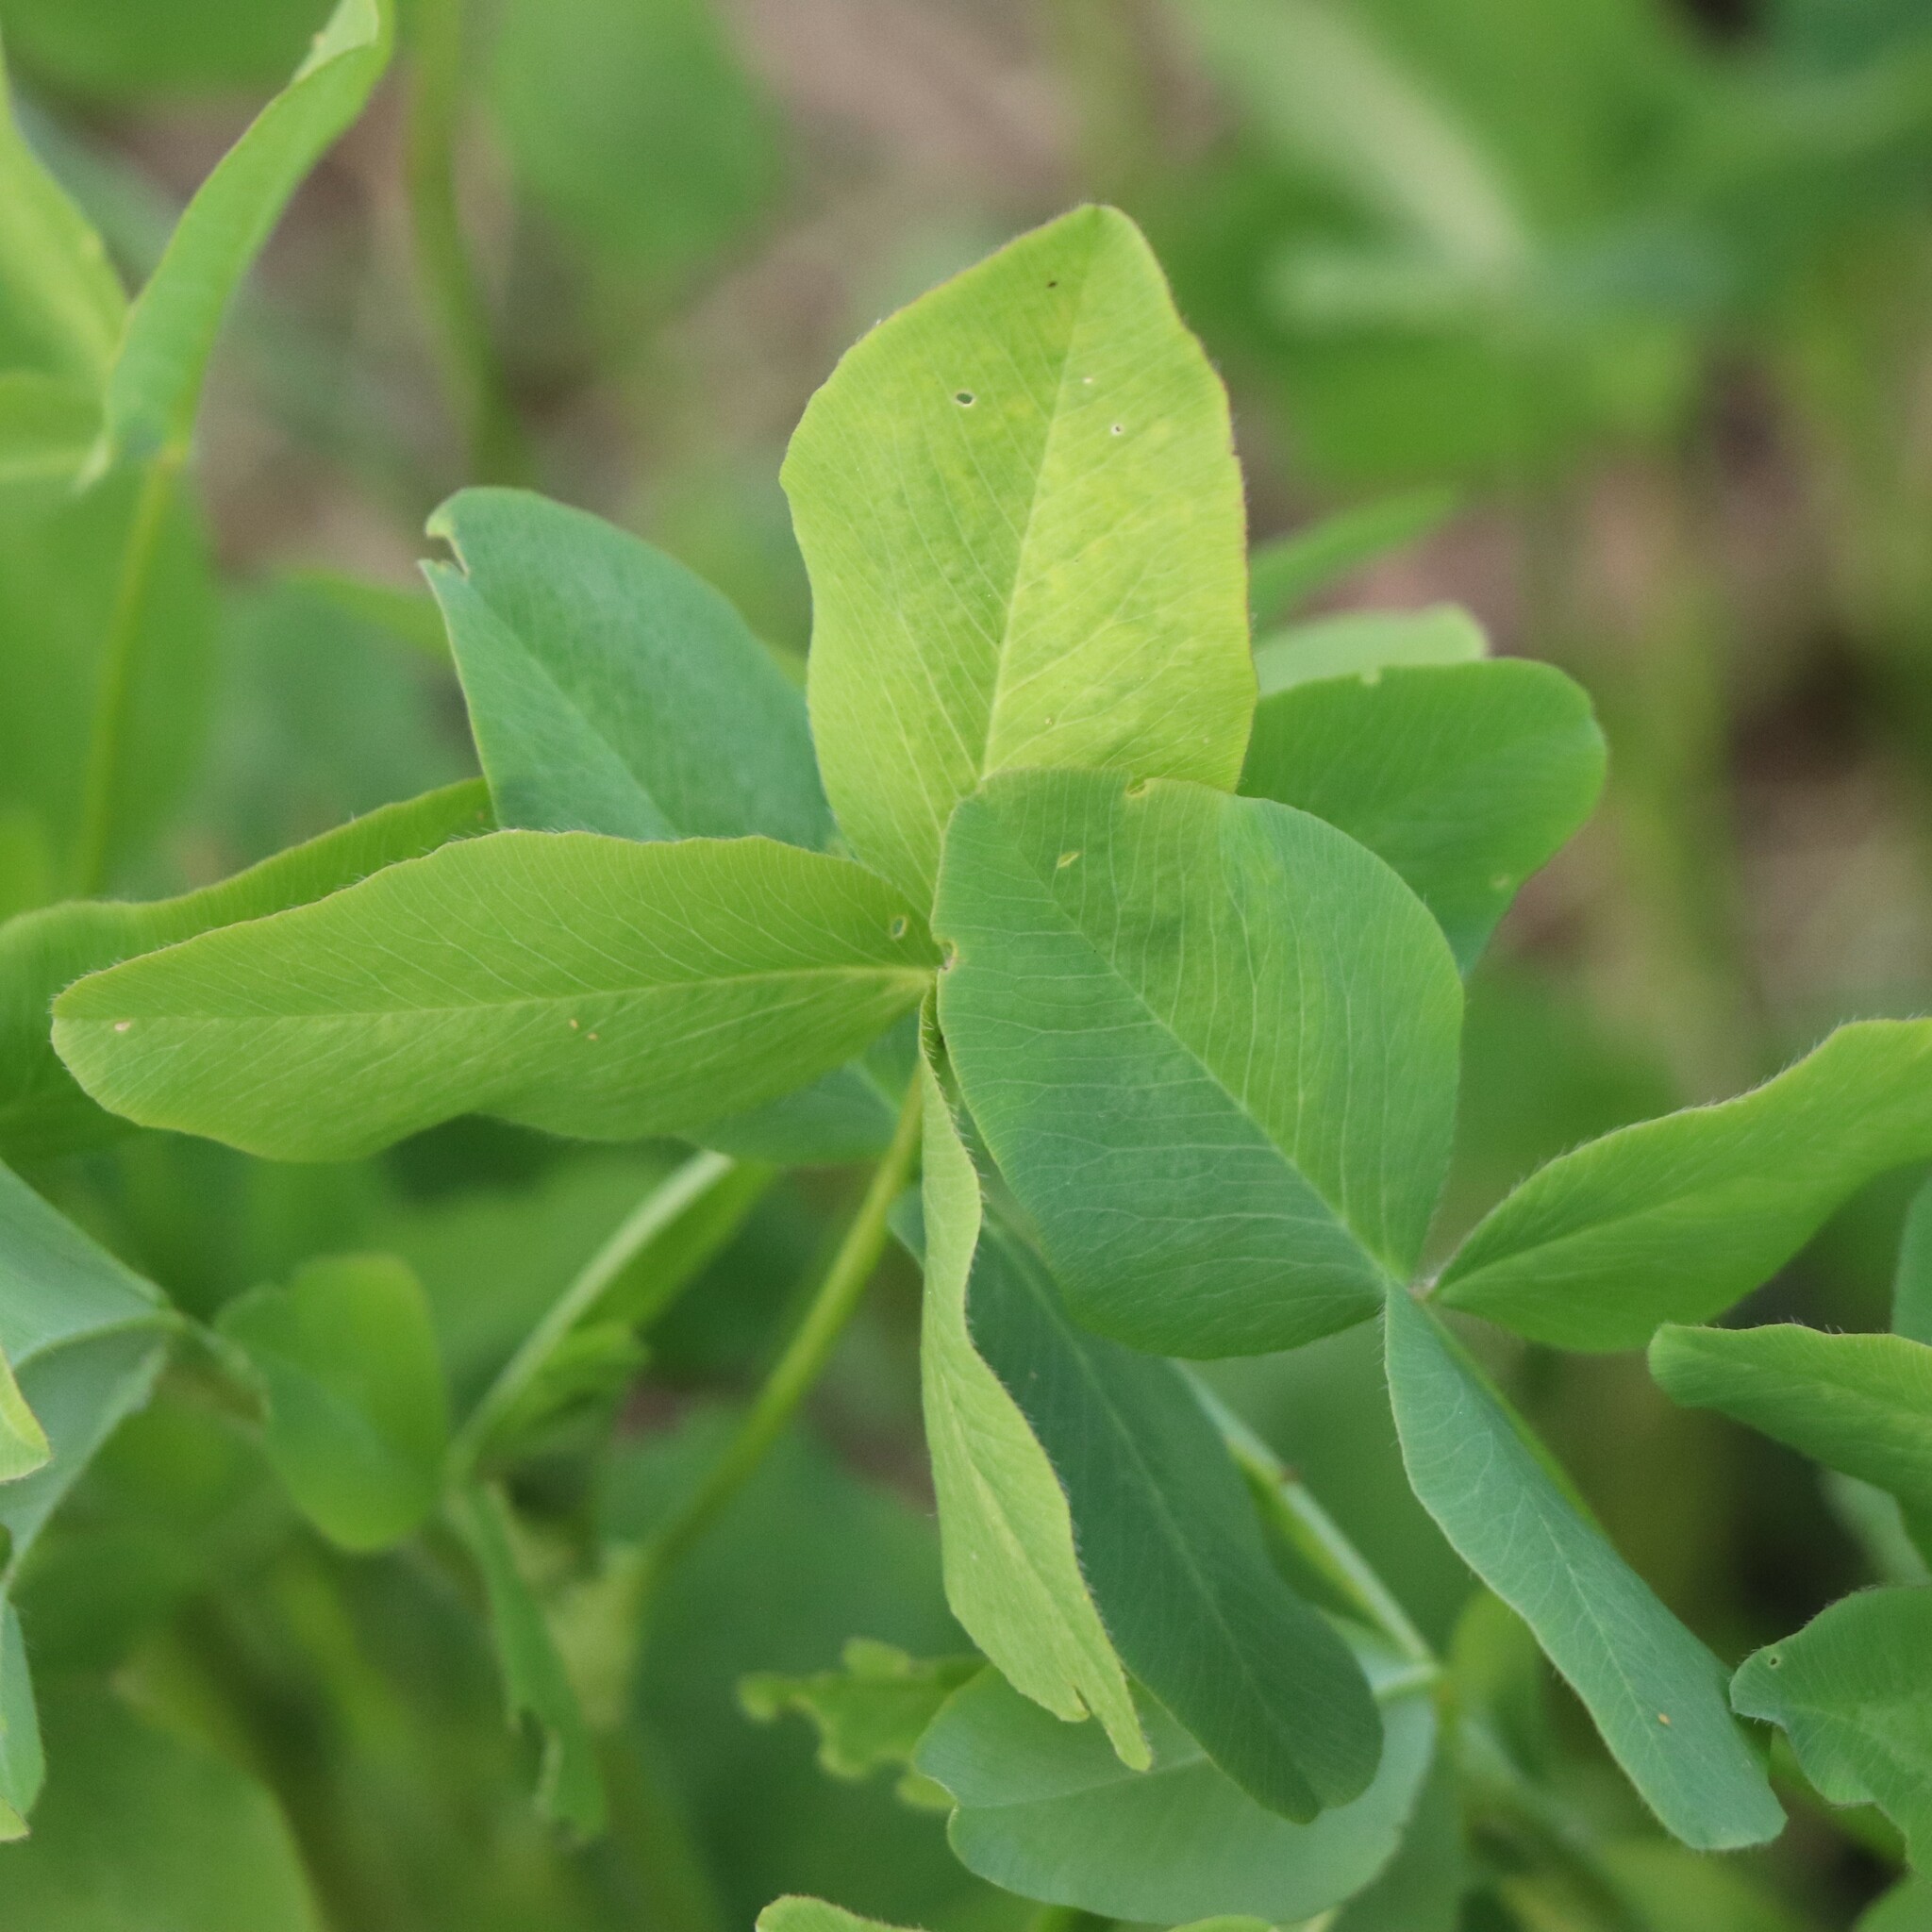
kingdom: Plantae
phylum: Tracheophyta
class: Magnoliopsida
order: Fabales
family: Fabaceae
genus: Trifolium
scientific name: Trifolium pratense
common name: Red clover
